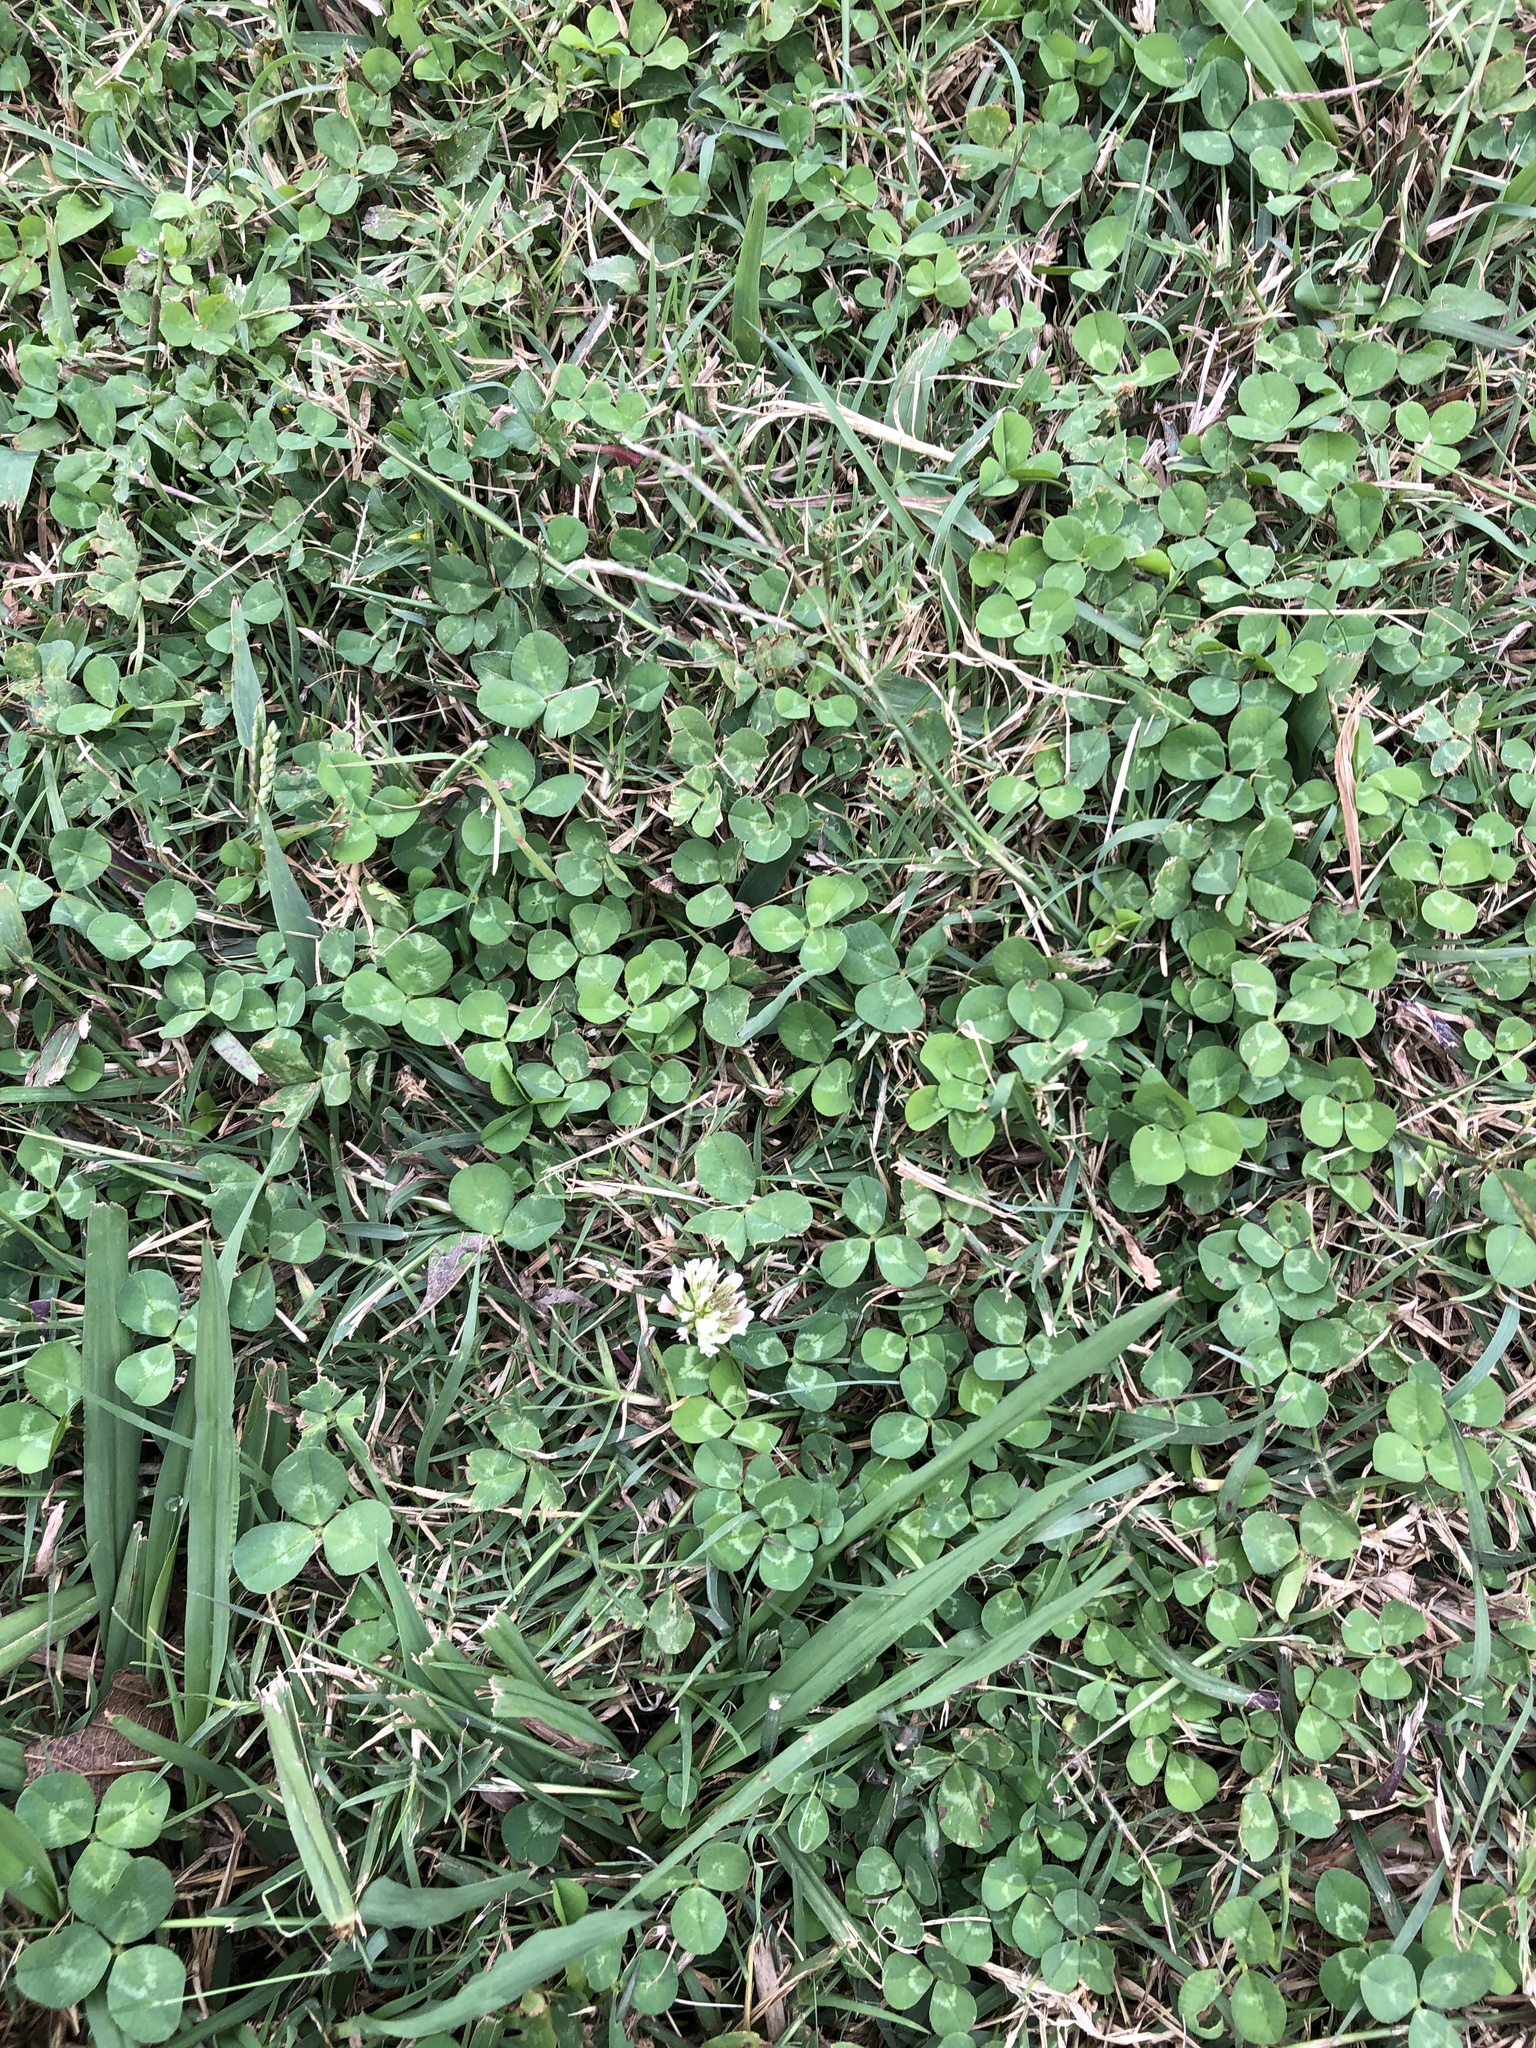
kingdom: Plantae
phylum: Tracheophyta
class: Magnoliopsida
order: Fabales
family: Fabaceae
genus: Trifolium
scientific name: Trifolium repens
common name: White clover
